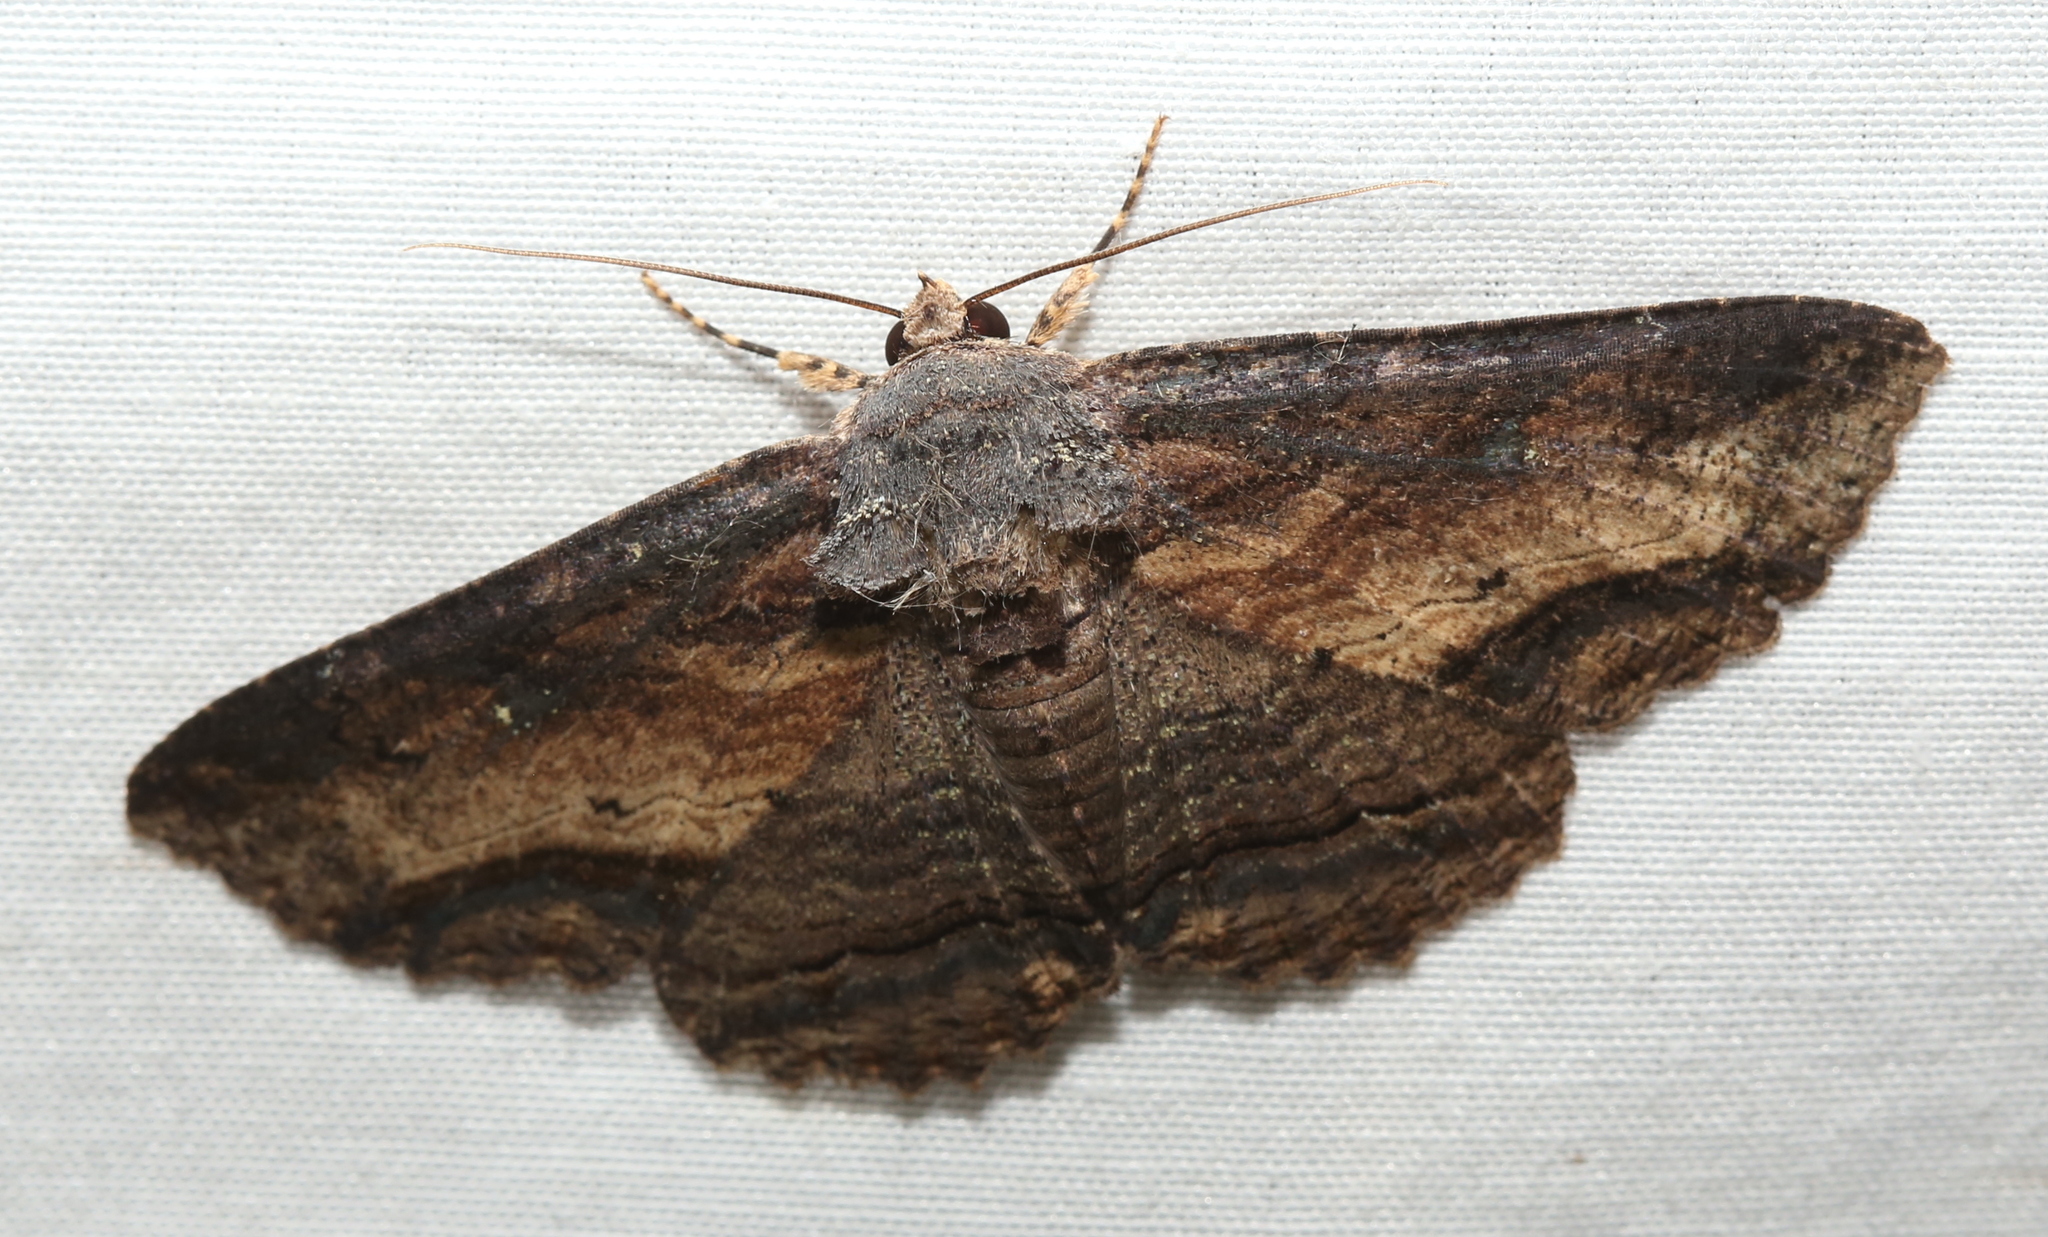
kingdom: Animalia
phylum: Arthropoda
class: Insecta
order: Lepidoptera
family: Erebidae
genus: Zale
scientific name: Zale lunata
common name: Lunate zale moth
